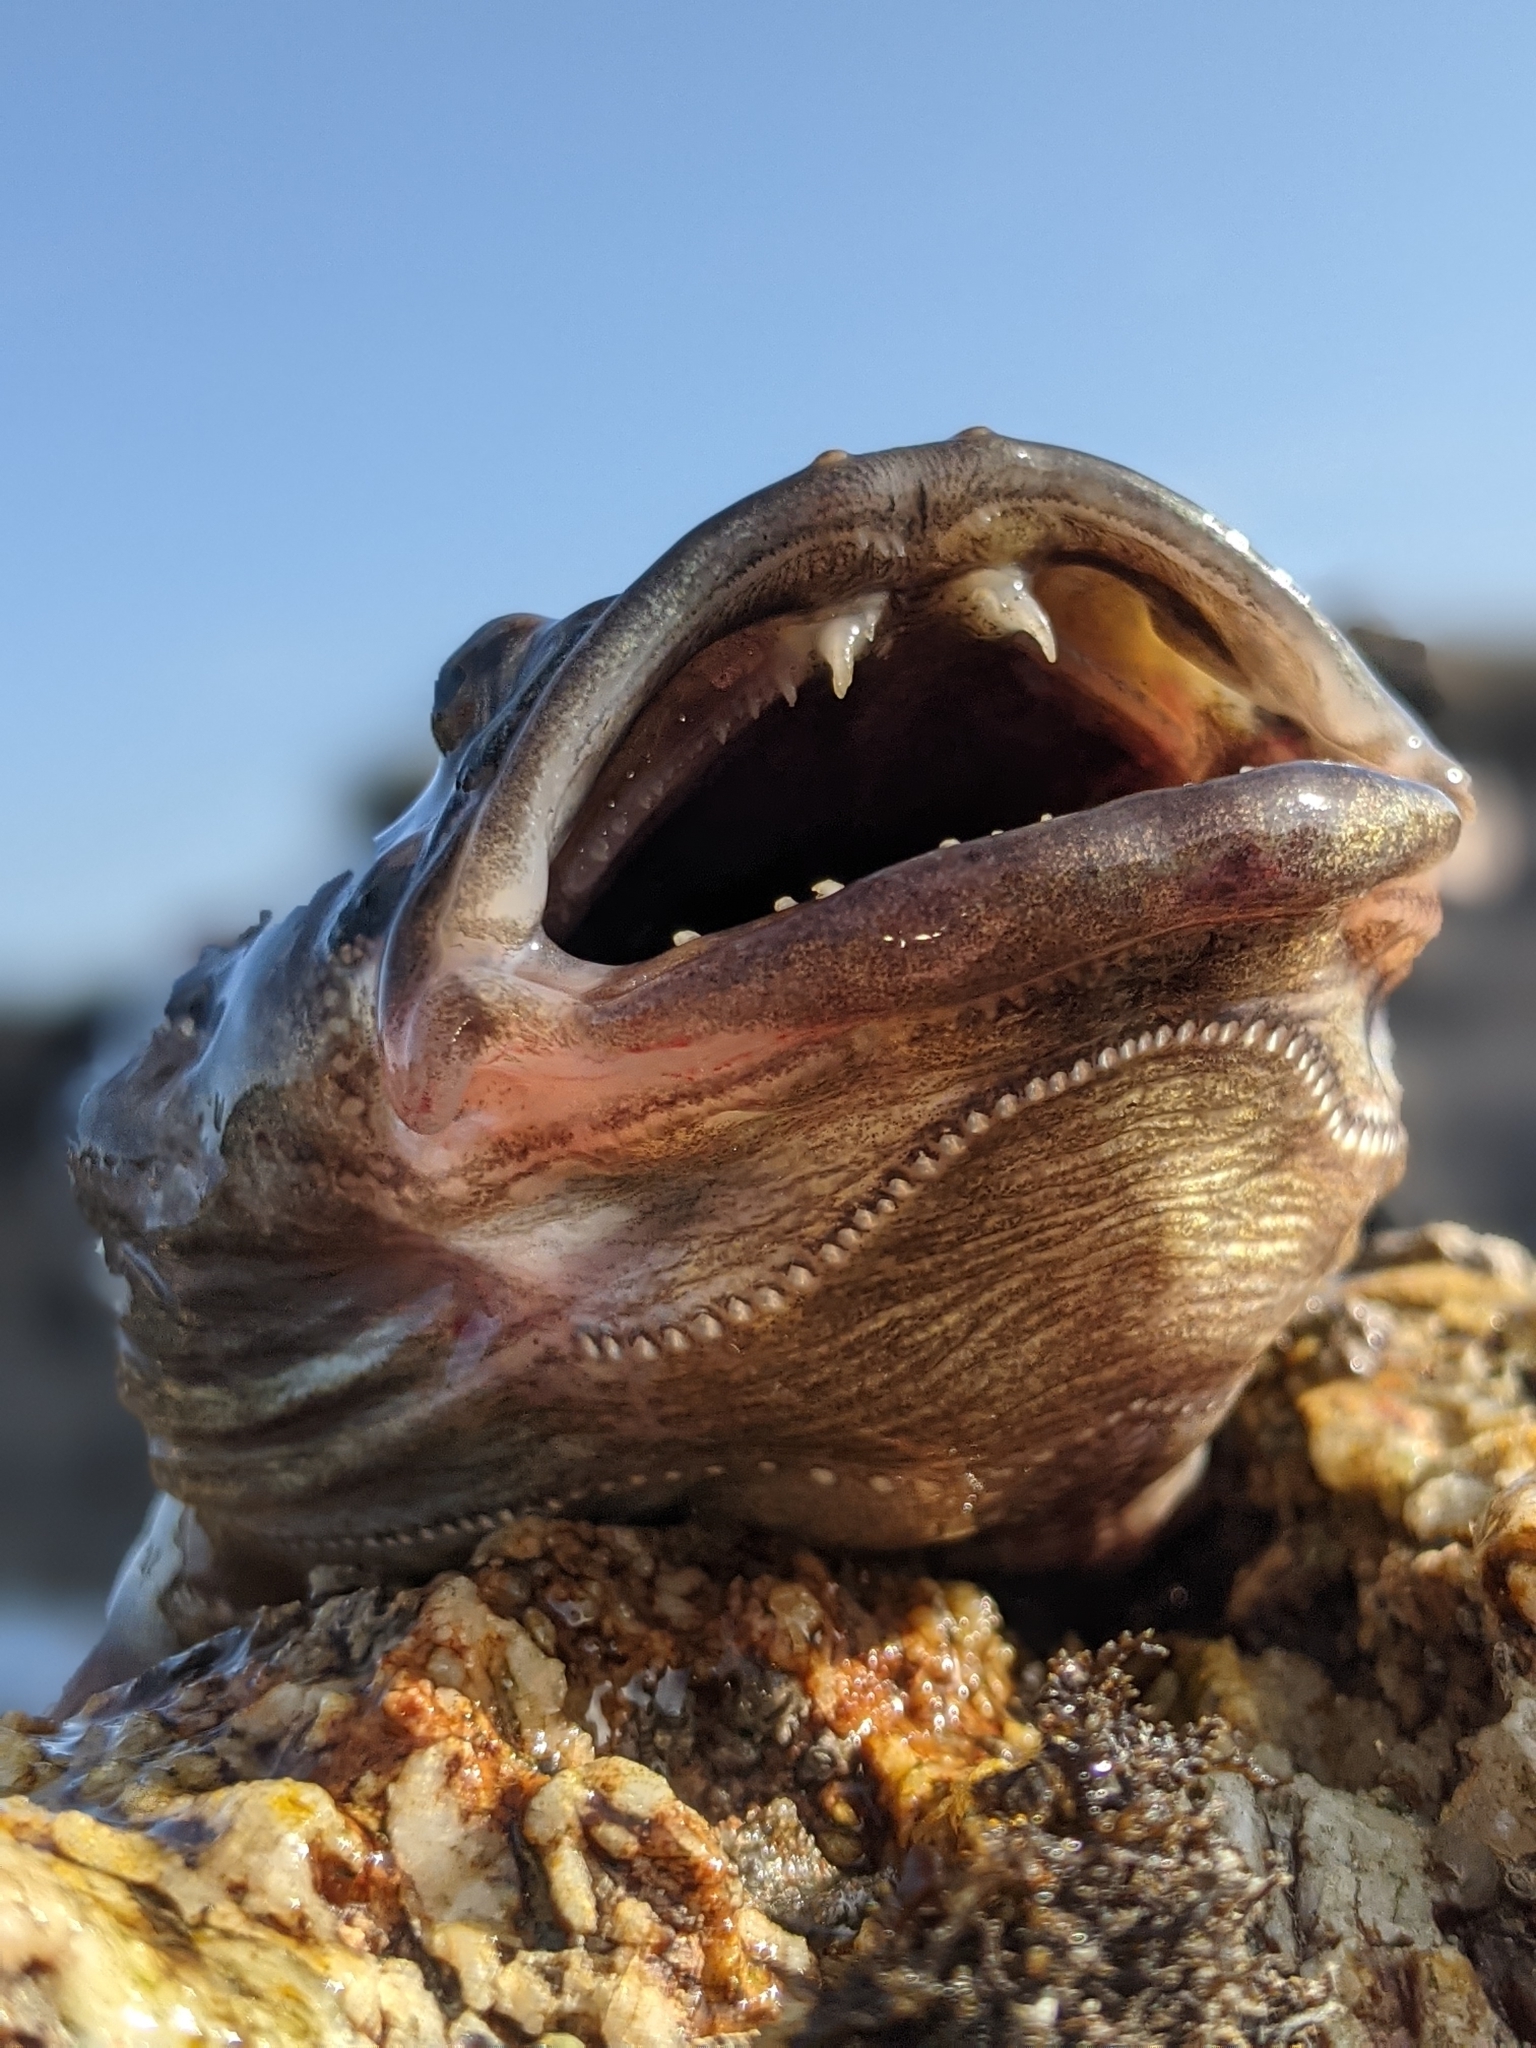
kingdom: Animalia
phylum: Chordata
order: Batrachoidiformes
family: Batrachoididae
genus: Porichthys
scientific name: Porichthys notatus
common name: Plainfin midshipman
